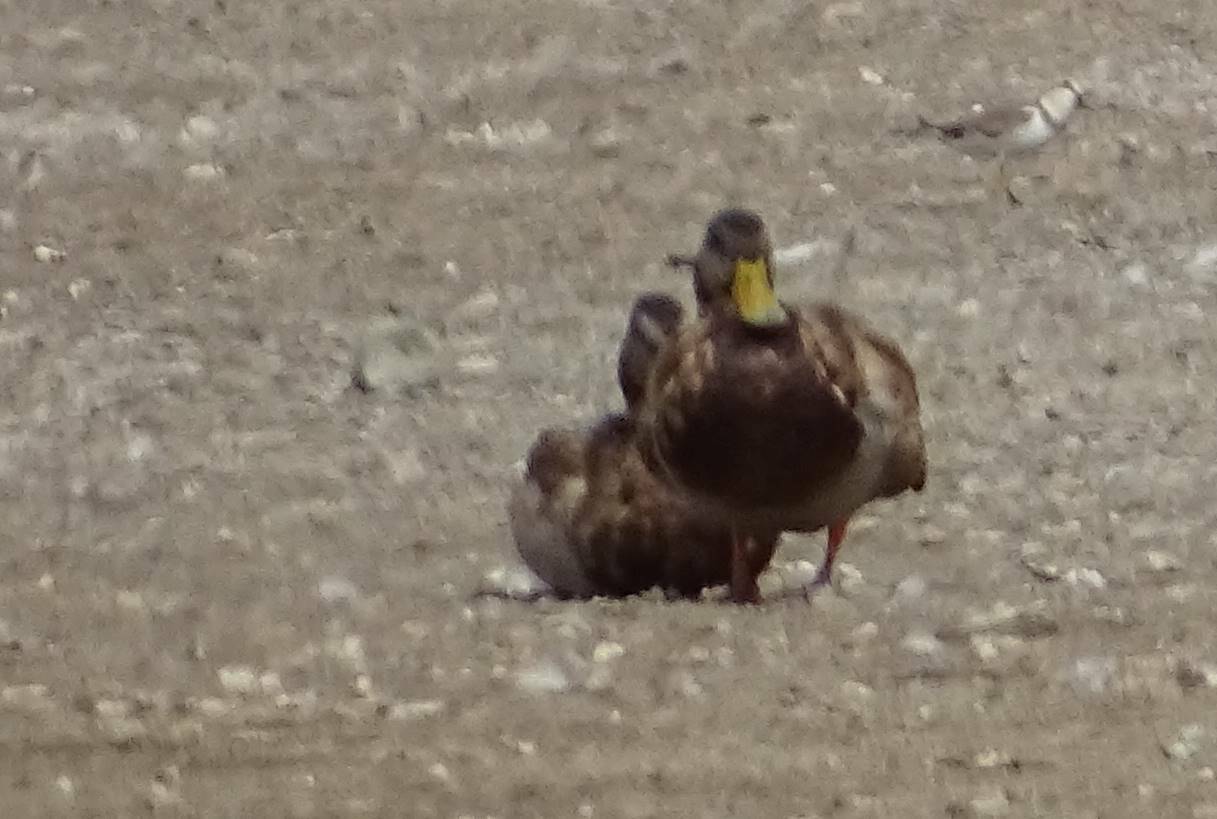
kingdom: Animalia
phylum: Chordata
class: Aves
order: Anseriformes
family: Anatidae
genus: Anas
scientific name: Anas platyrhynchos
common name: Mallard
